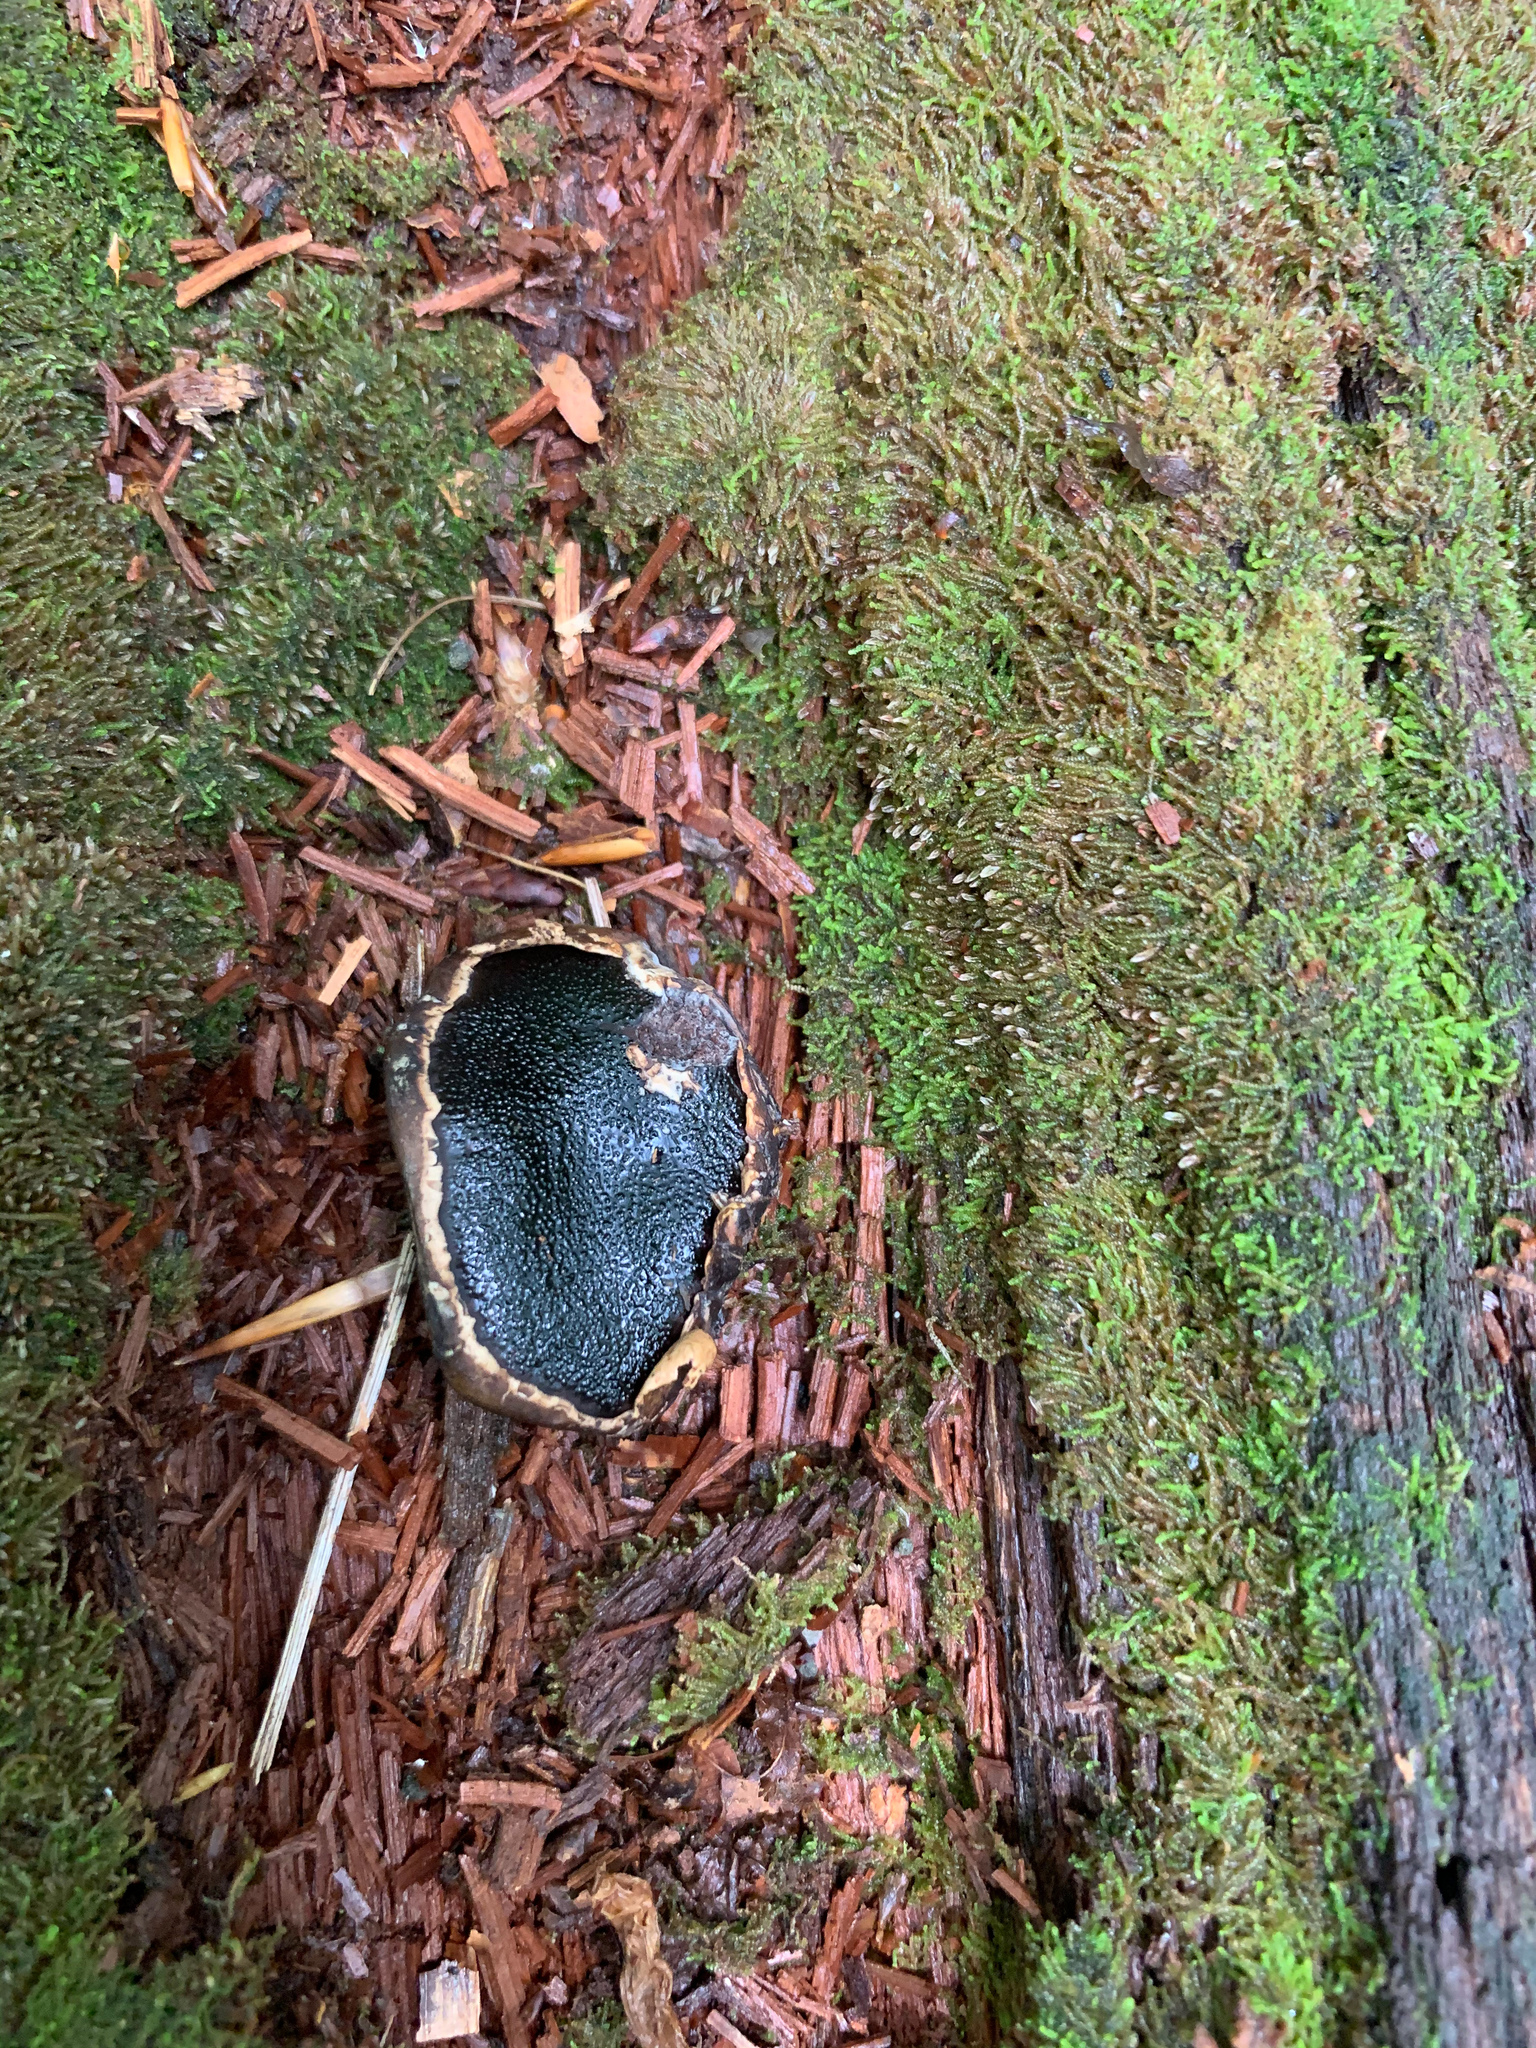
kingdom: Fungi
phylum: Ascomycota
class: Sordariomycetes
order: Boliniales
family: Boliniaceae
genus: Camarops
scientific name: Camarops petersii
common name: Dog's nose fungus
